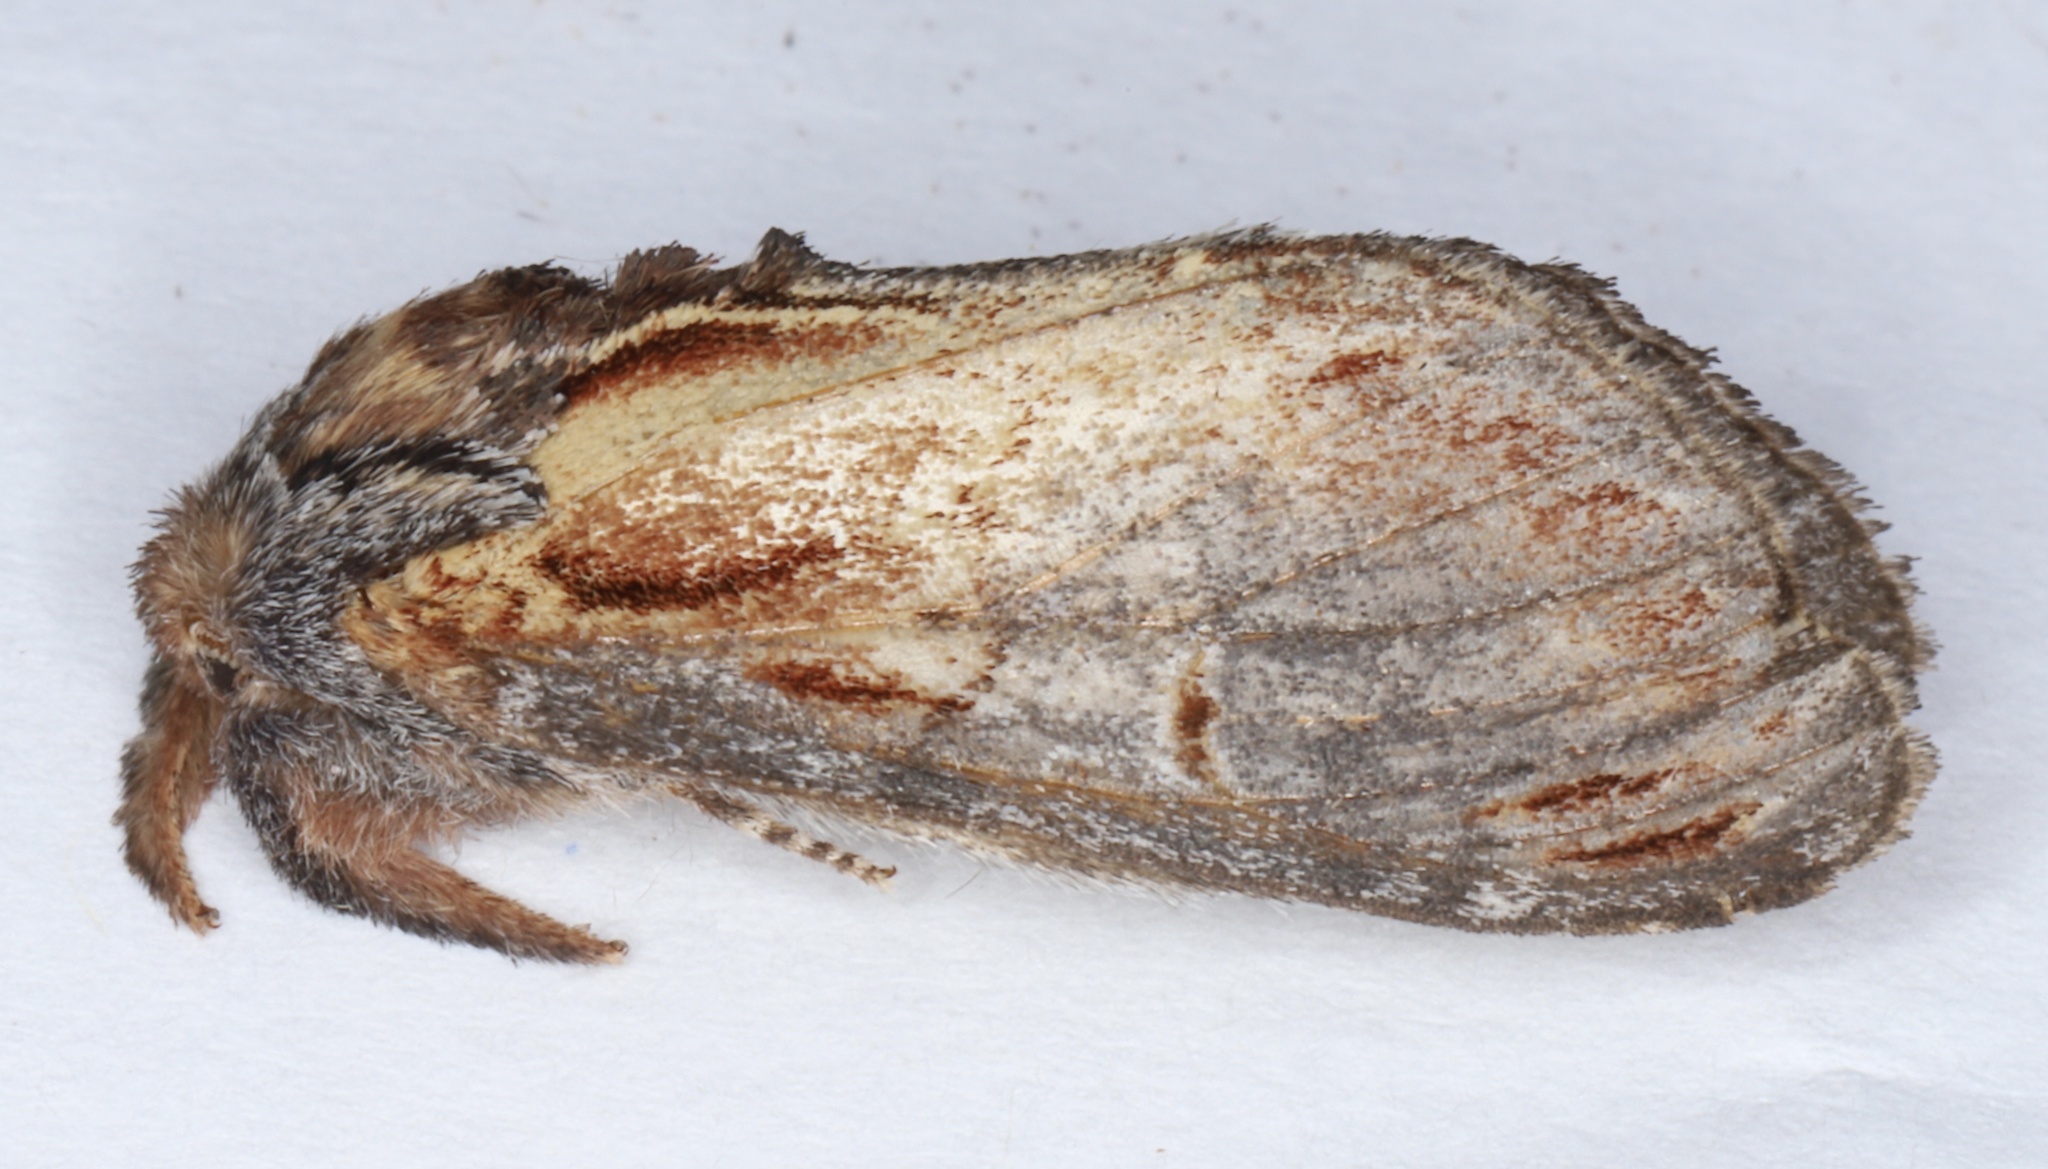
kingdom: Animalia
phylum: Arthropoda
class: Insecta
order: Lepidoptera
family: Notodontidae
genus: Notodonta
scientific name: Notodonta scitipennis
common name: Finned-willow prominent moth
